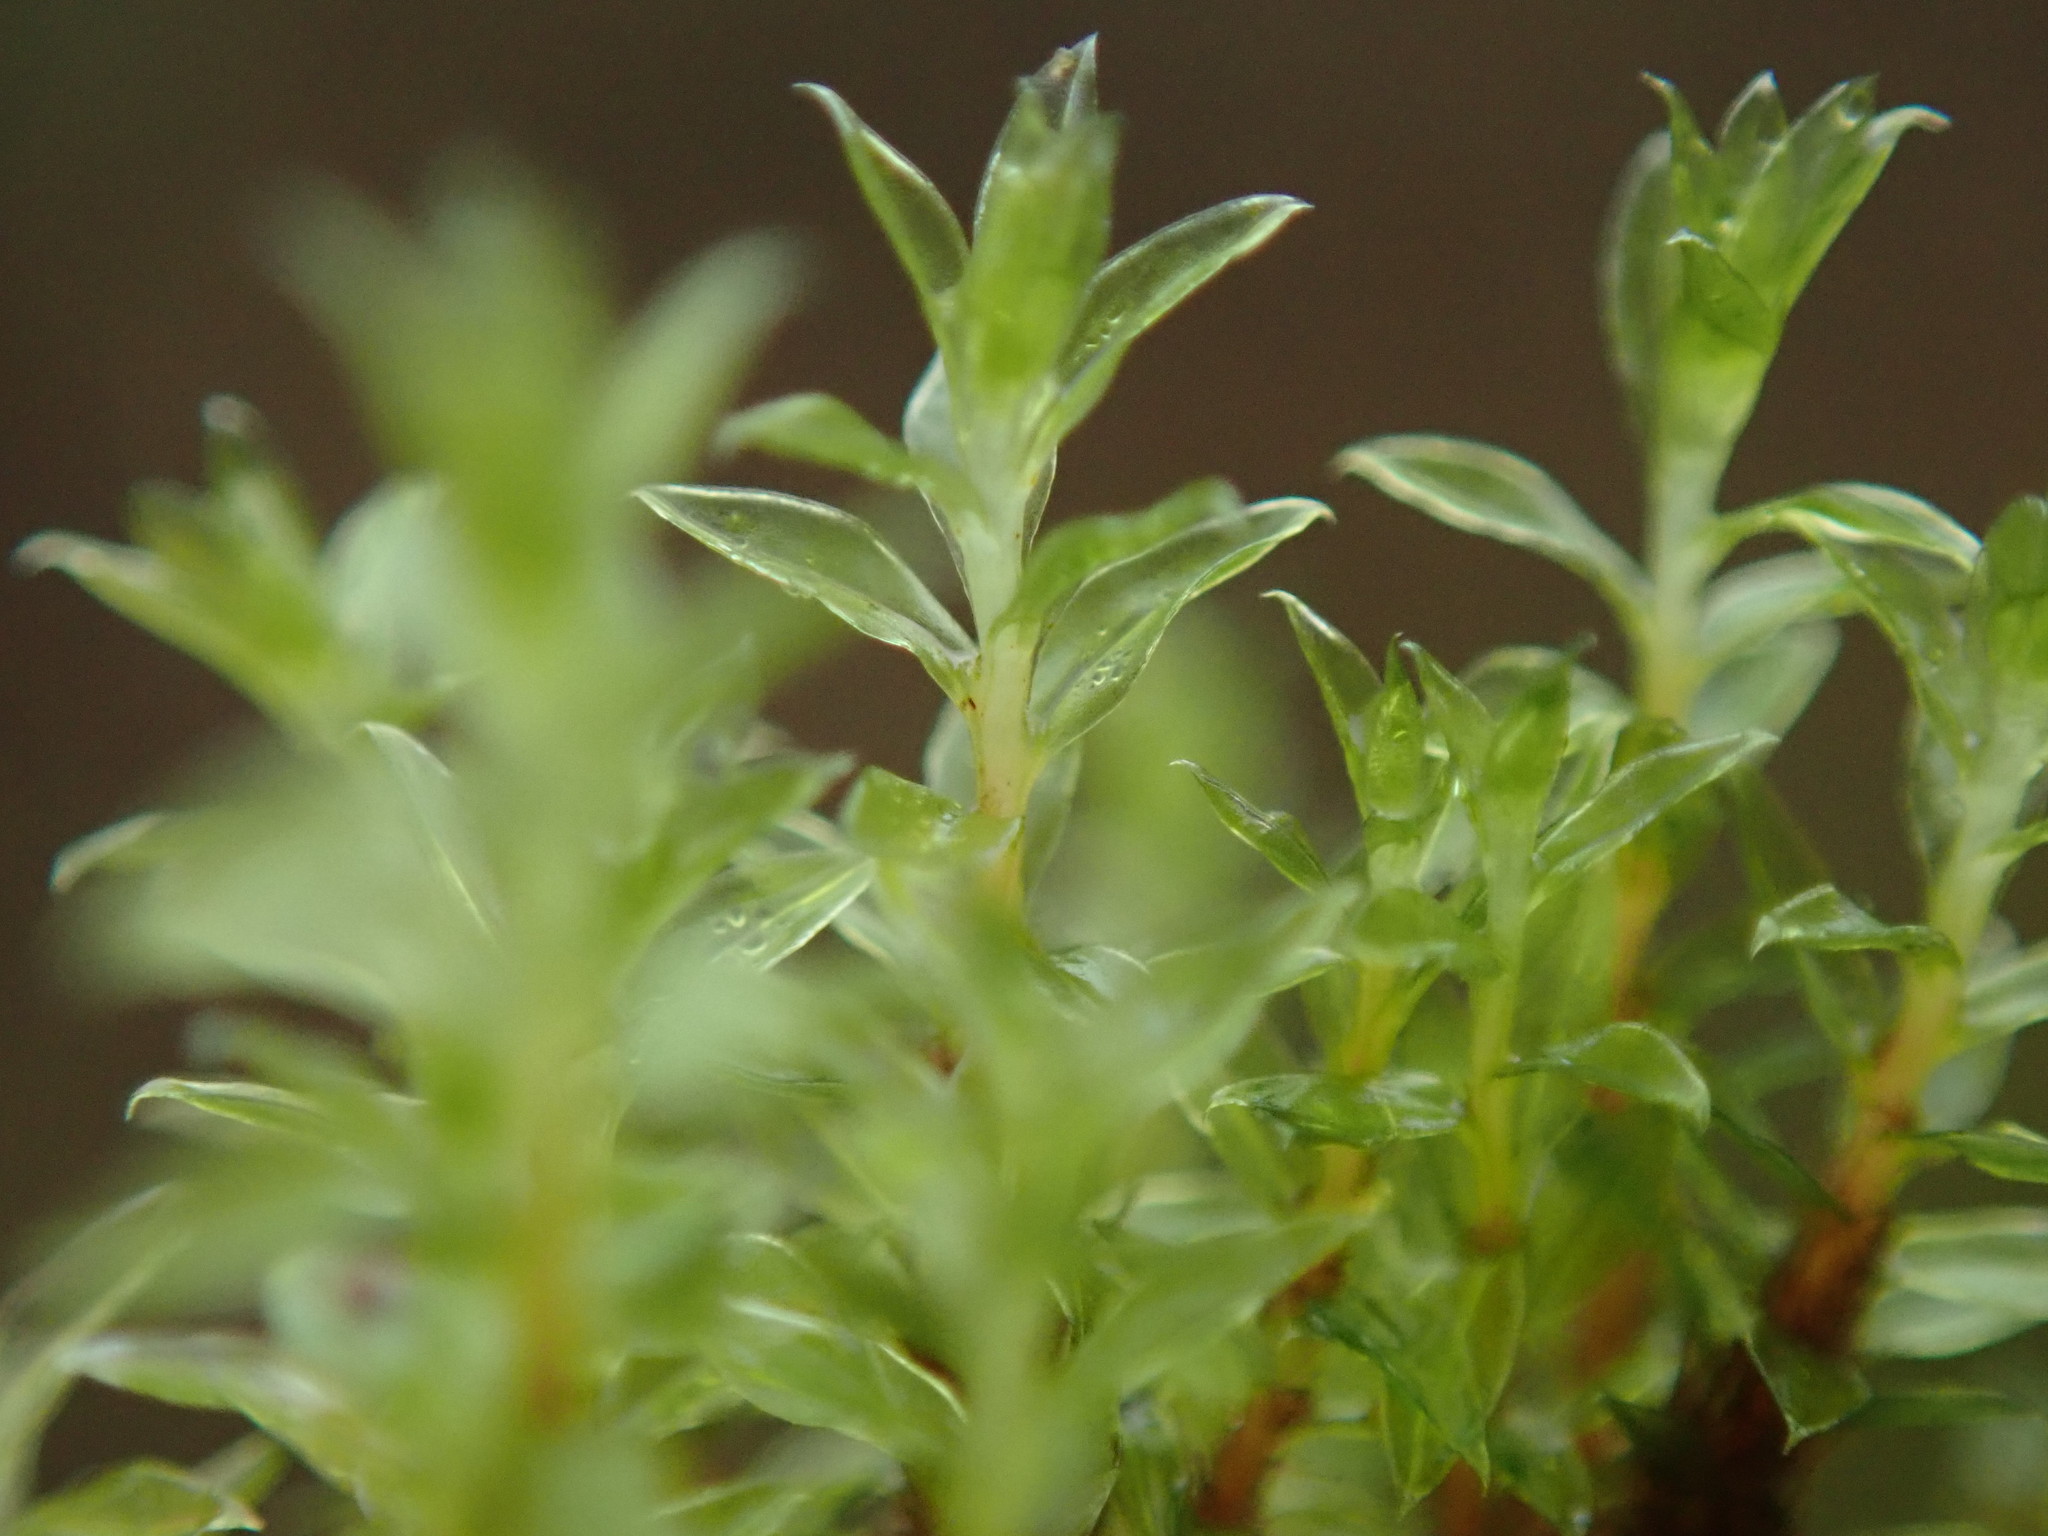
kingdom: Plantae
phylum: Bryophyta
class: Bryopsida
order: Bryales
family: Bryaceae
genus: Ptychostomum
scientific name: Ptychostomum pseudotriquetrum
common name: Long-leaved thread moss
